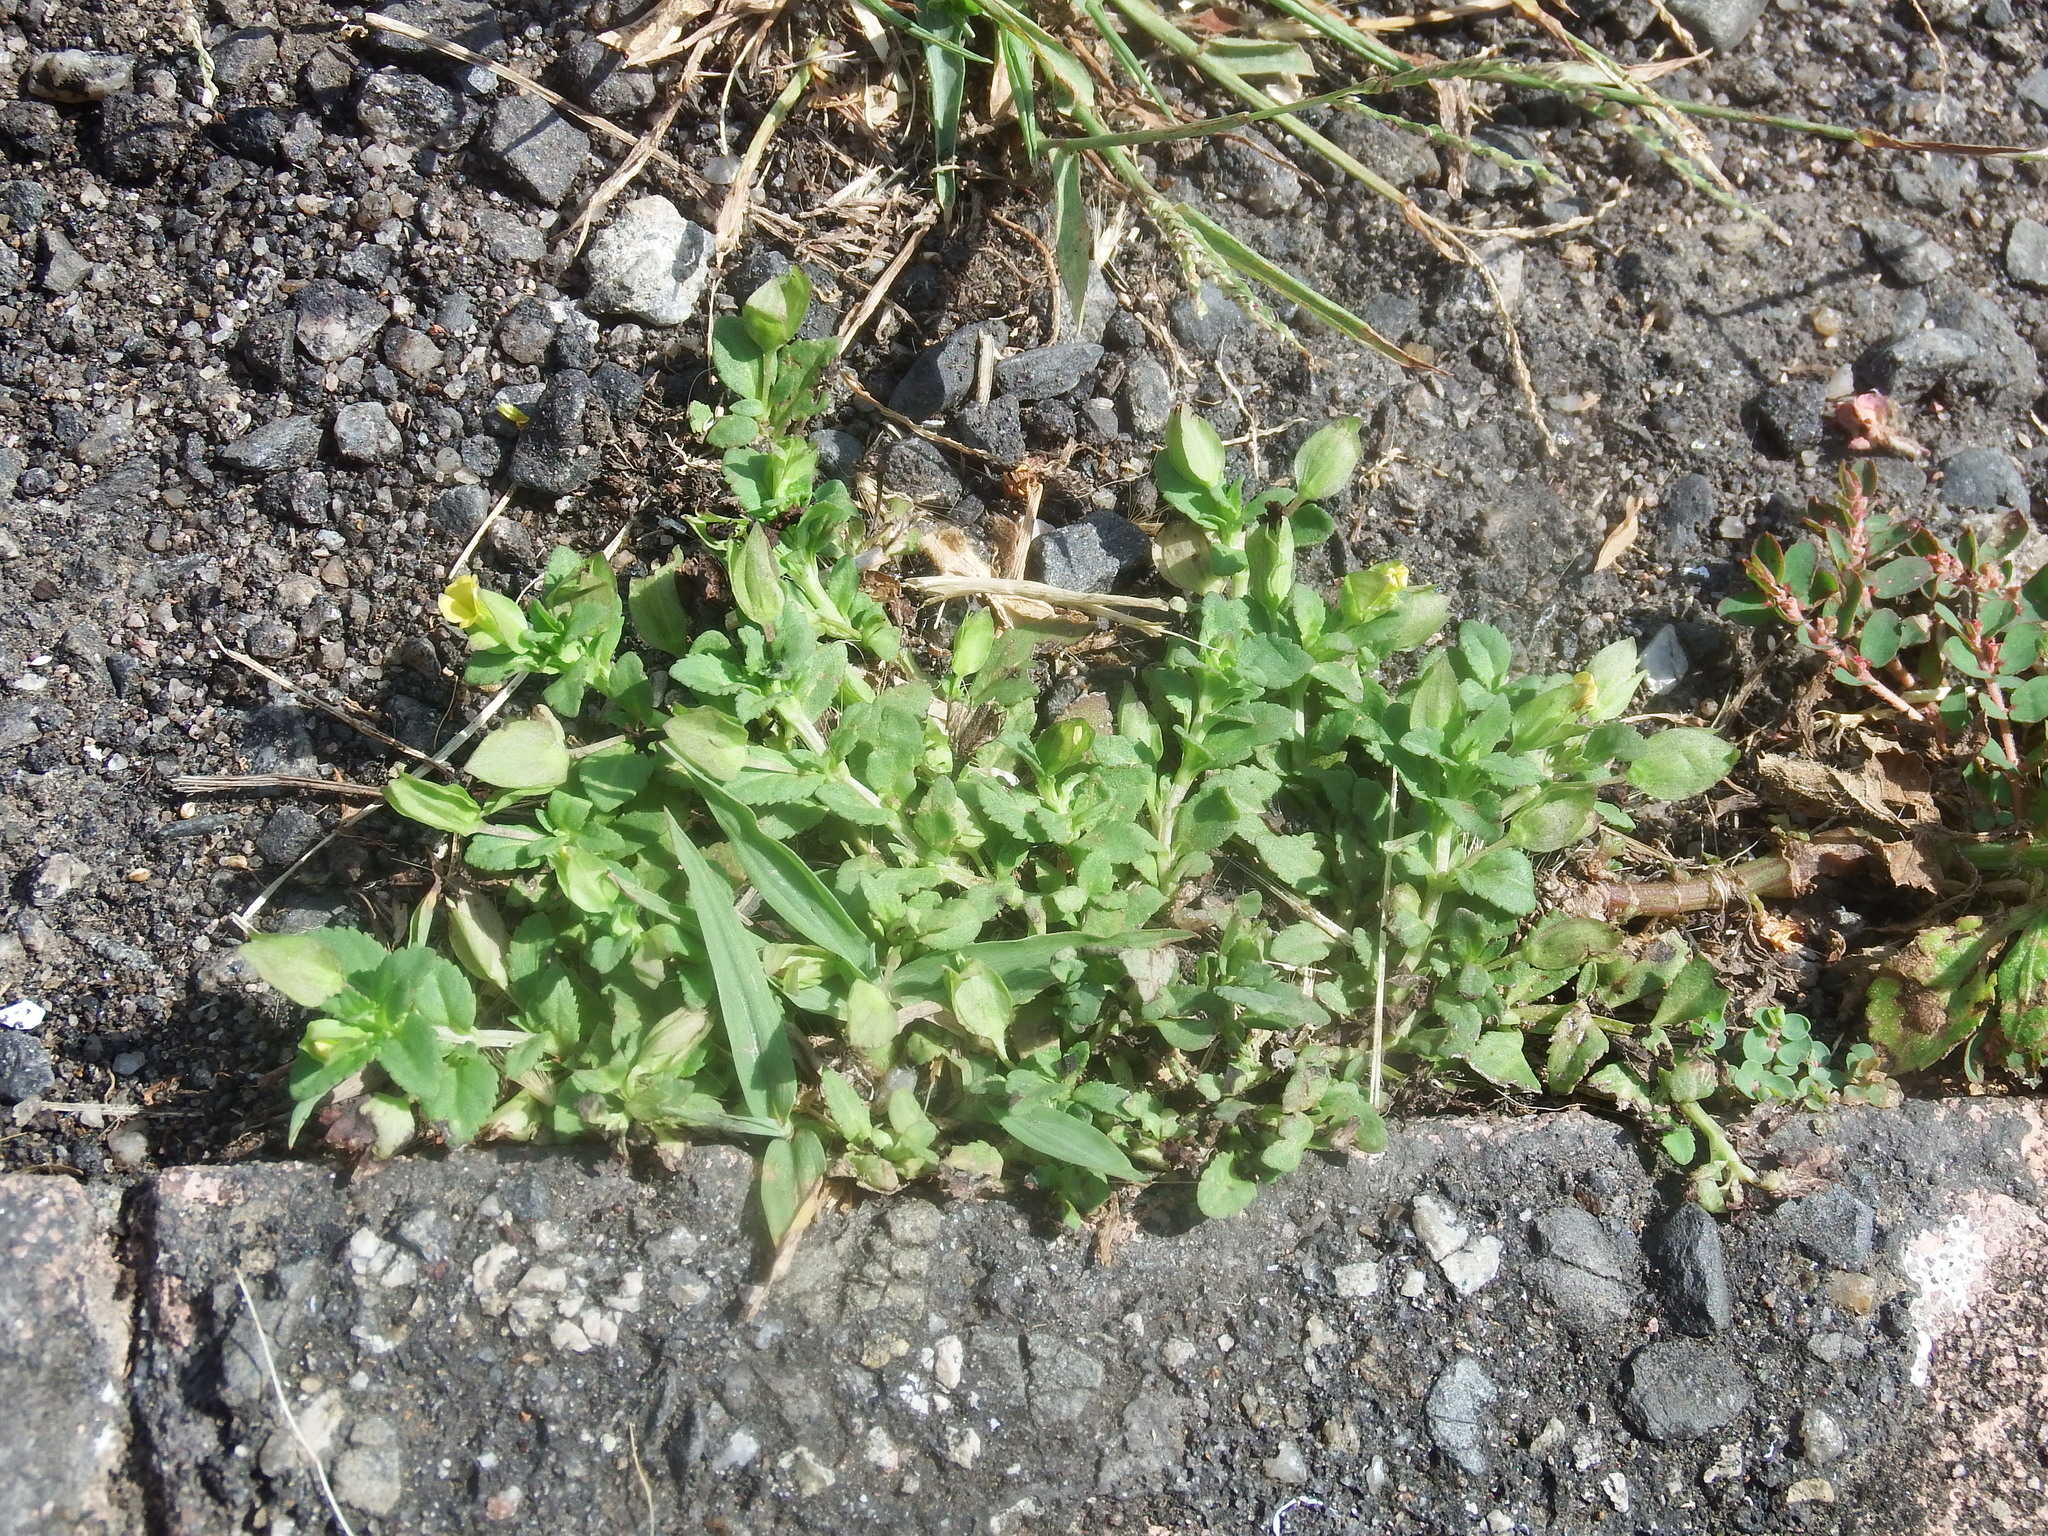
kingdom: Plantae
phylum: Tracheophyta
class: Magnoliopsida
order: Lamiales
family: Plantaginaceae
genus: Mecardonia
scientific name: Mecardonia procumbens
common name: Baby jump-up
